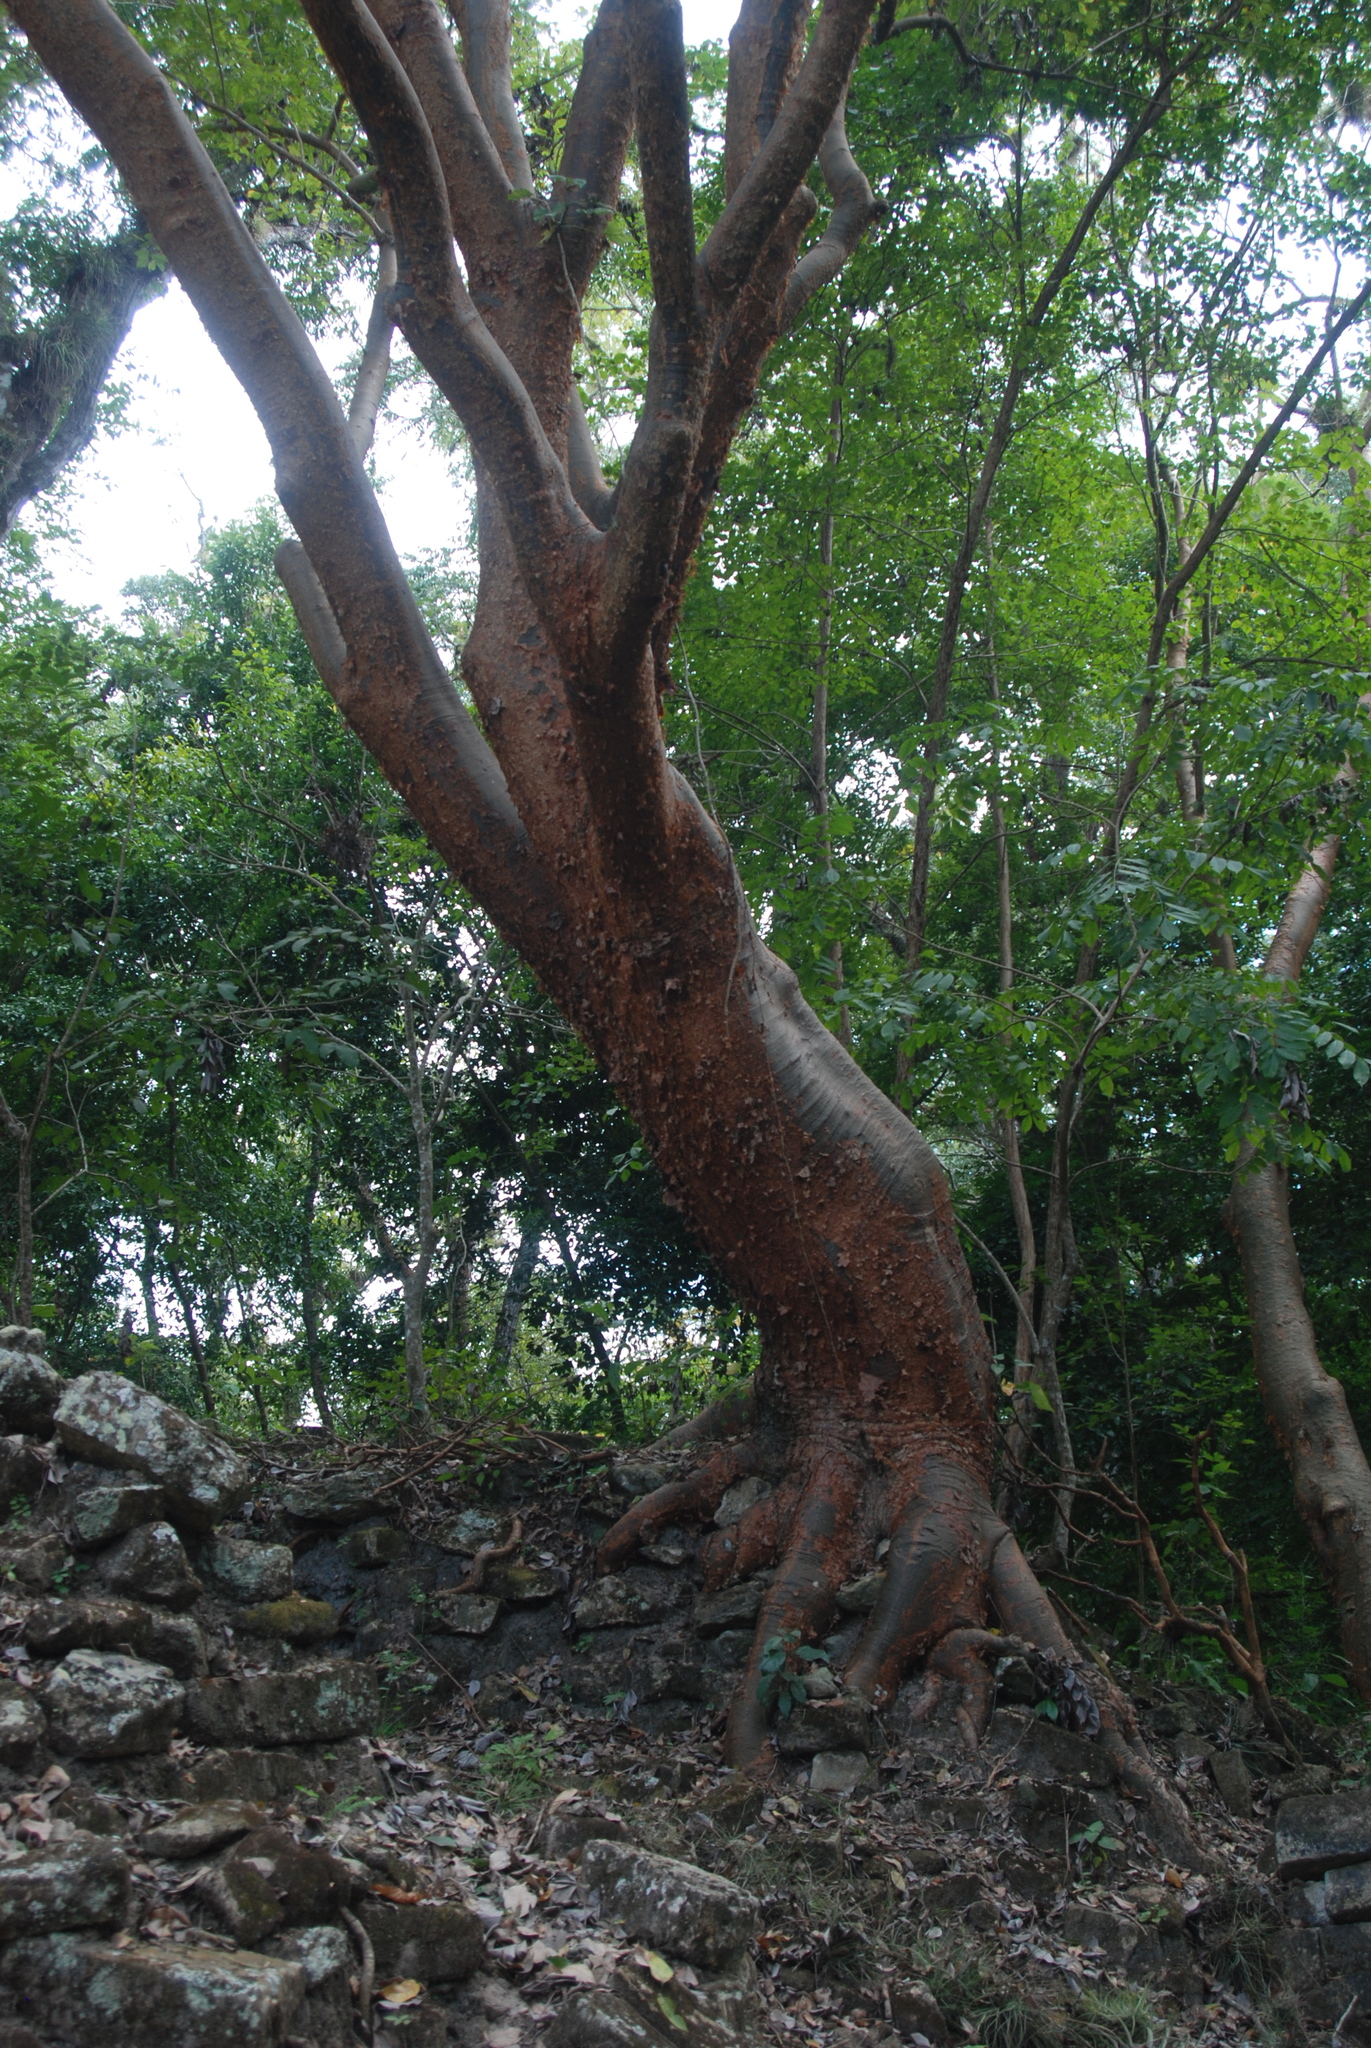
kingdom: Plantae
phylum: Tracheophyta
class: Magnoliopsida
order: Sapindales
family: Burseraceae
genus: Bursera
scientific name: Bursera simaruba
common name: Turpentine tree
